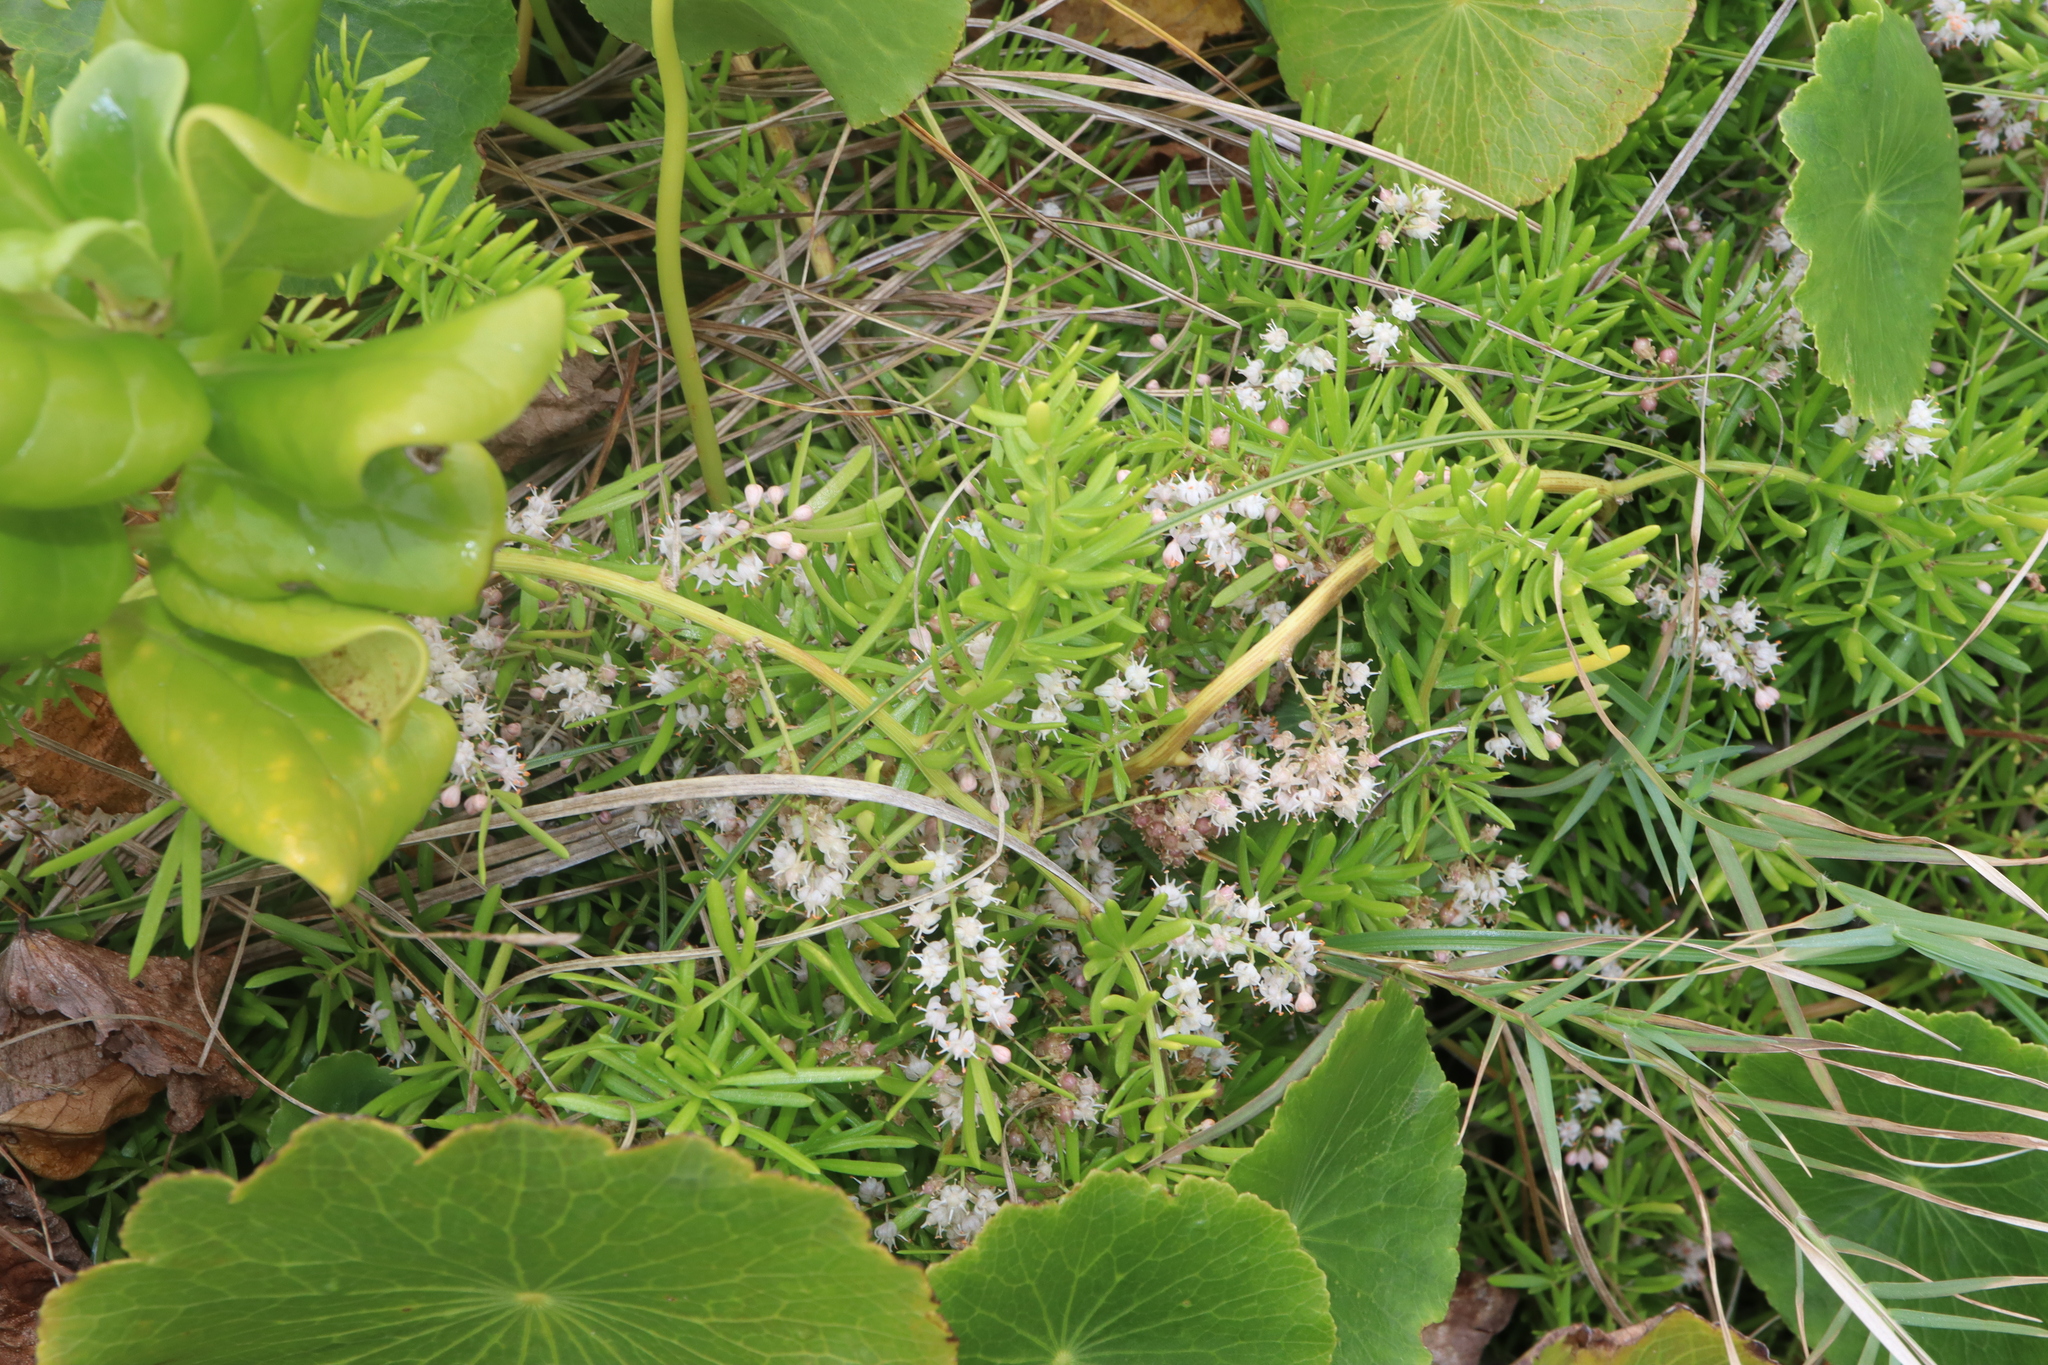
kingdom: Plantae
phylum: Tracheophyta
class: Liliopsida
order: Asparagales
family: Asparagaceae
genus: Asparagus
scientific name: Asparagus aethiopicus
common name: Sprenger's asparagus fern
